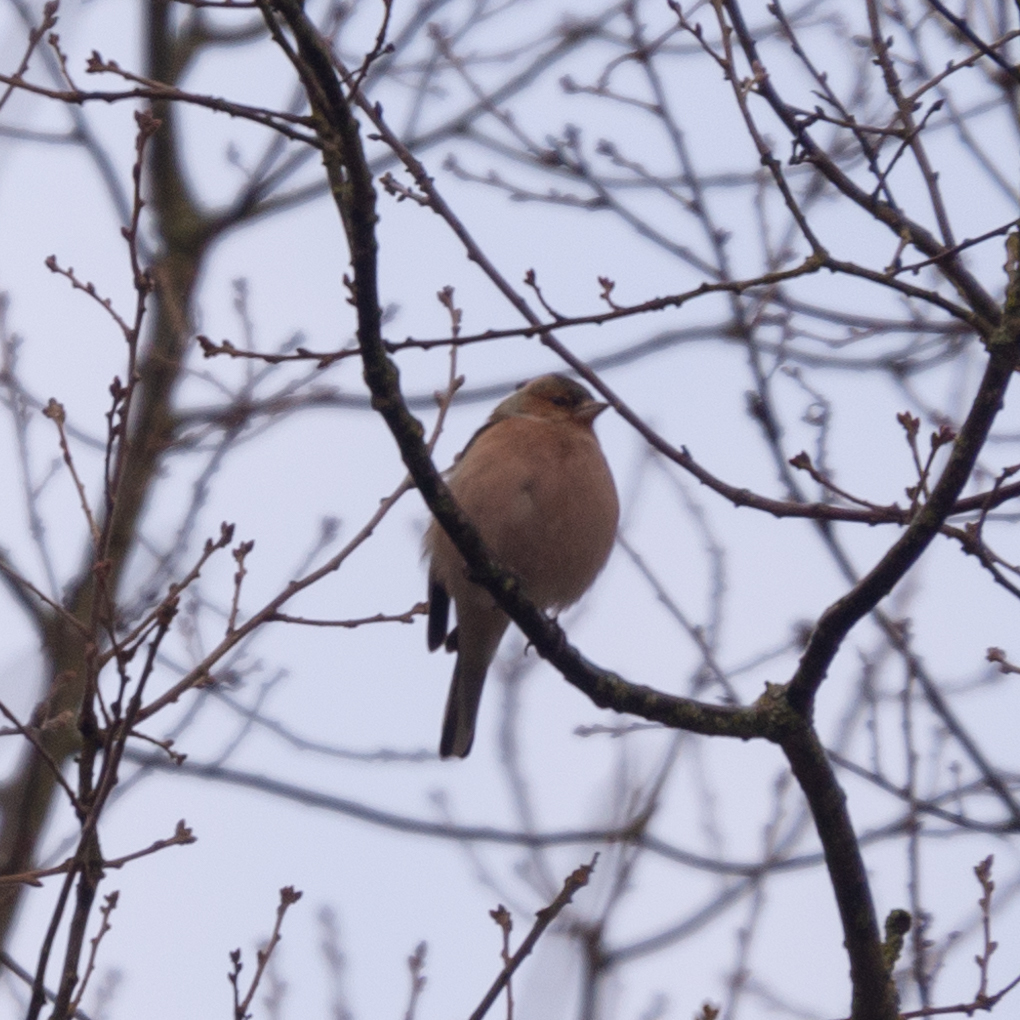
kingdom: Animalia
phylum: Chordata
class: Aves
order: Passeriformes
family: Fringillidae
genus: Fringilla
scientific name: Fringilla coelebs
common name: Common chaffinch
